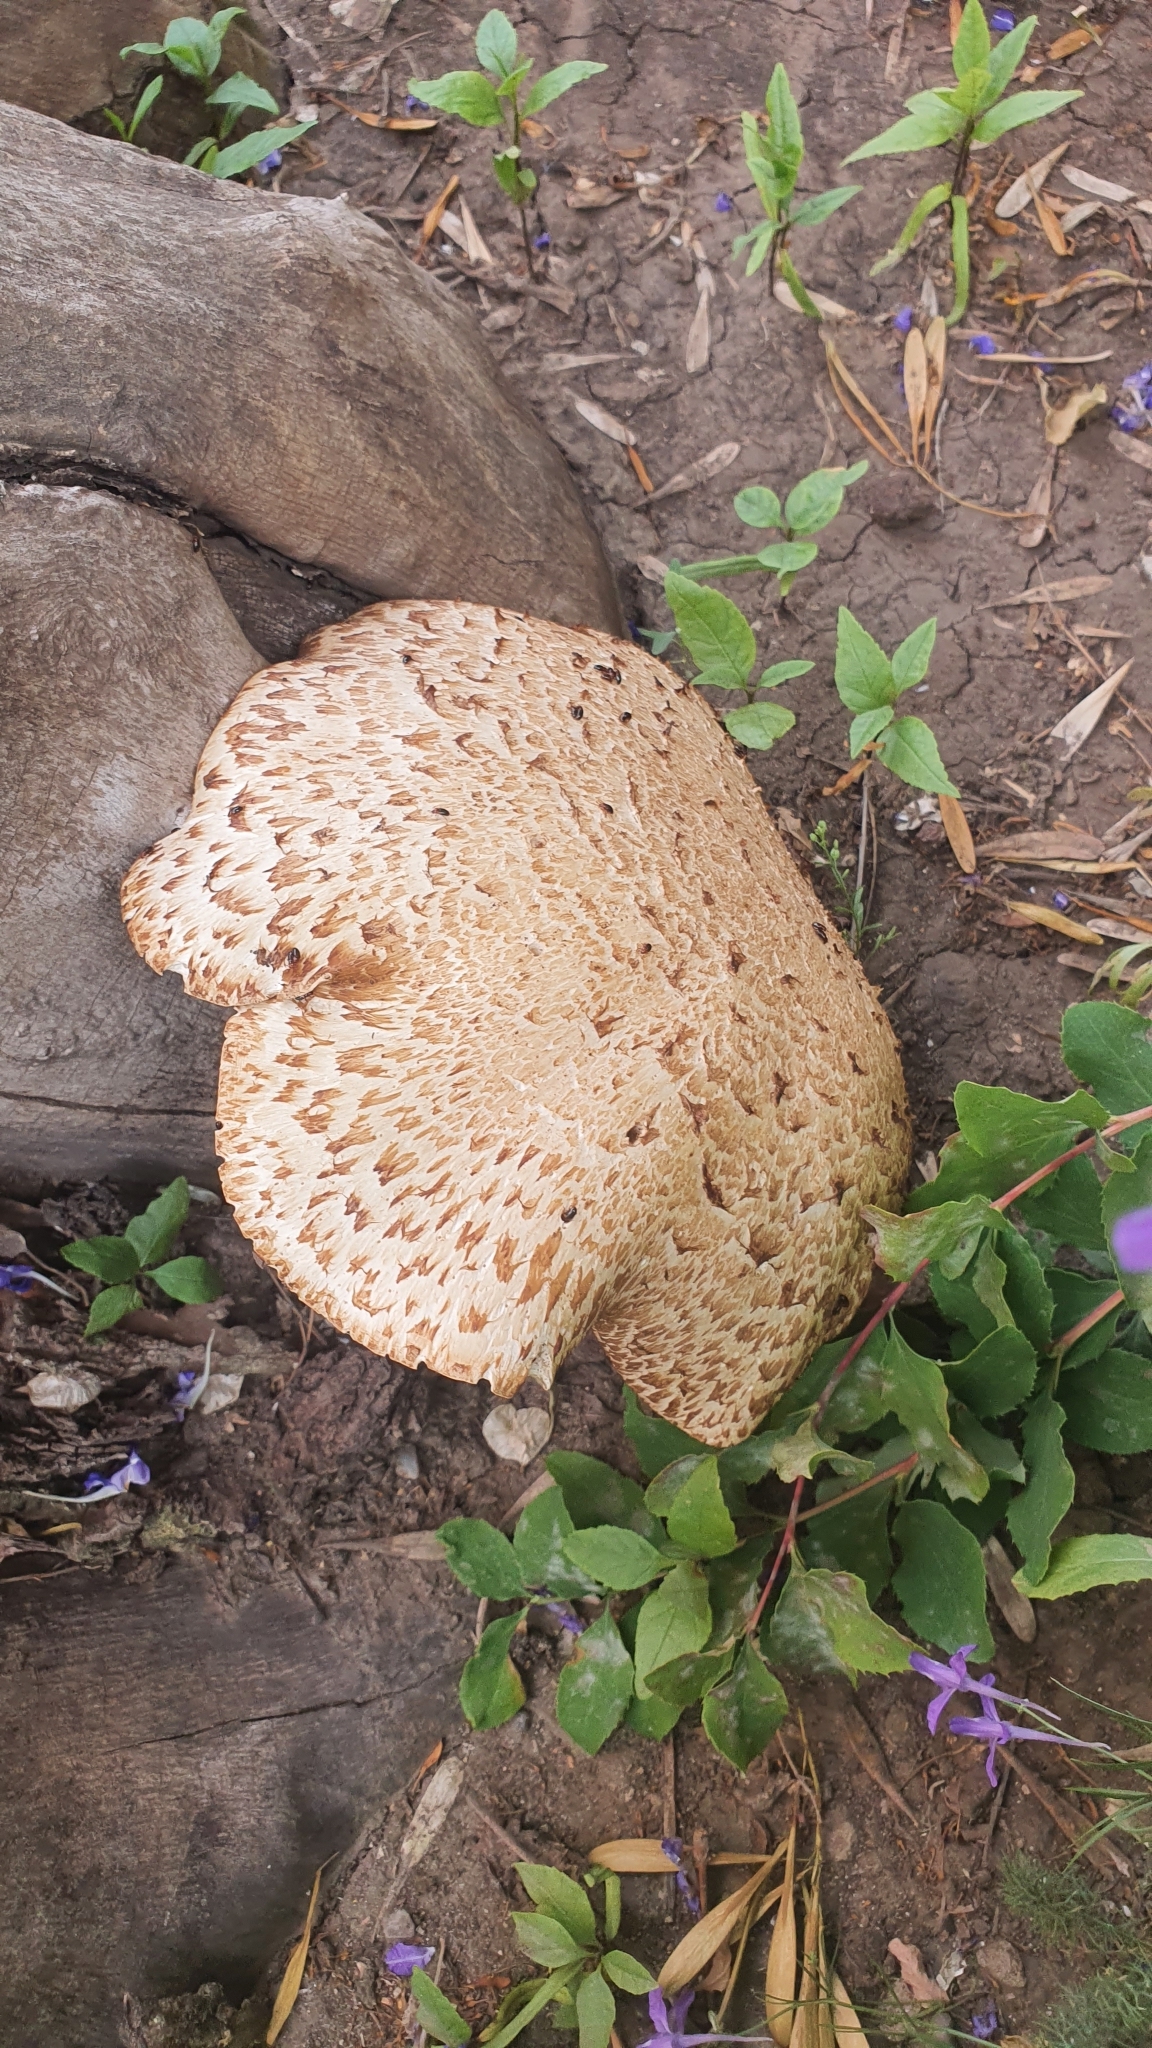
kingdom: Fungi
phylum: Basidiomycota
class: Agaricomycetes
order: Polyporales
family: Polyporaceae
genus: Cerioporus
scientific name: Cerioporus squamosus
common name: Dryad's saddle
